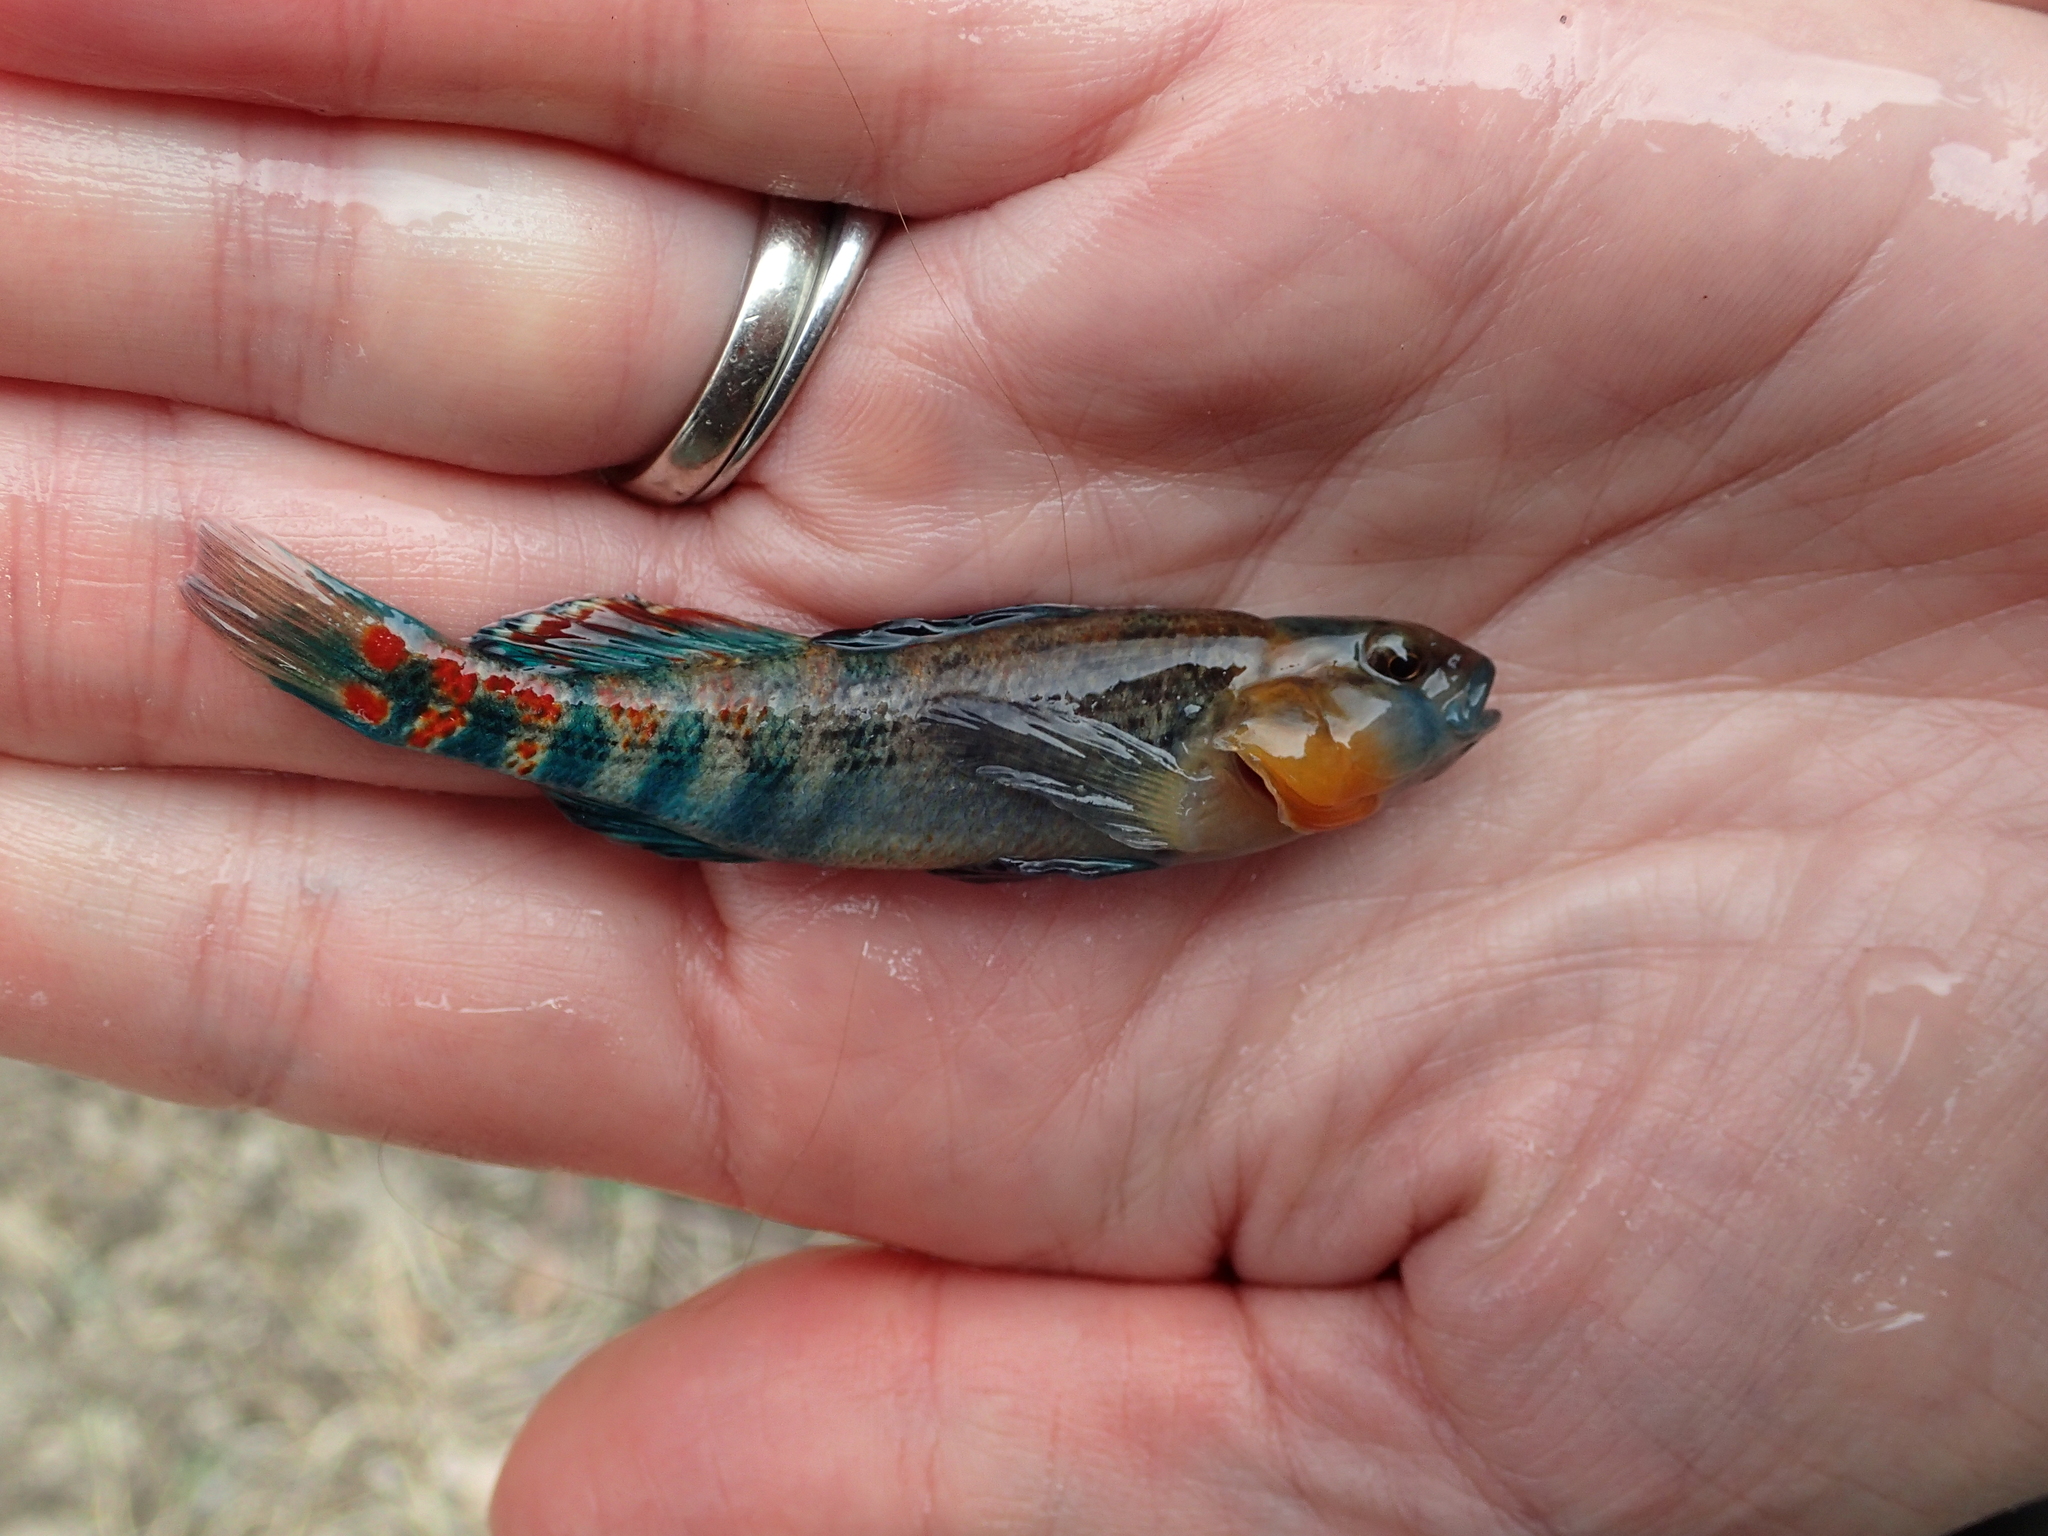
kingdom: Animalia
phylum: Chordata
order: Perciformes
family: Percidae
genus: Etheostoma
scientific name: Etheostoma spectabile
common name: Orangethroat darter
